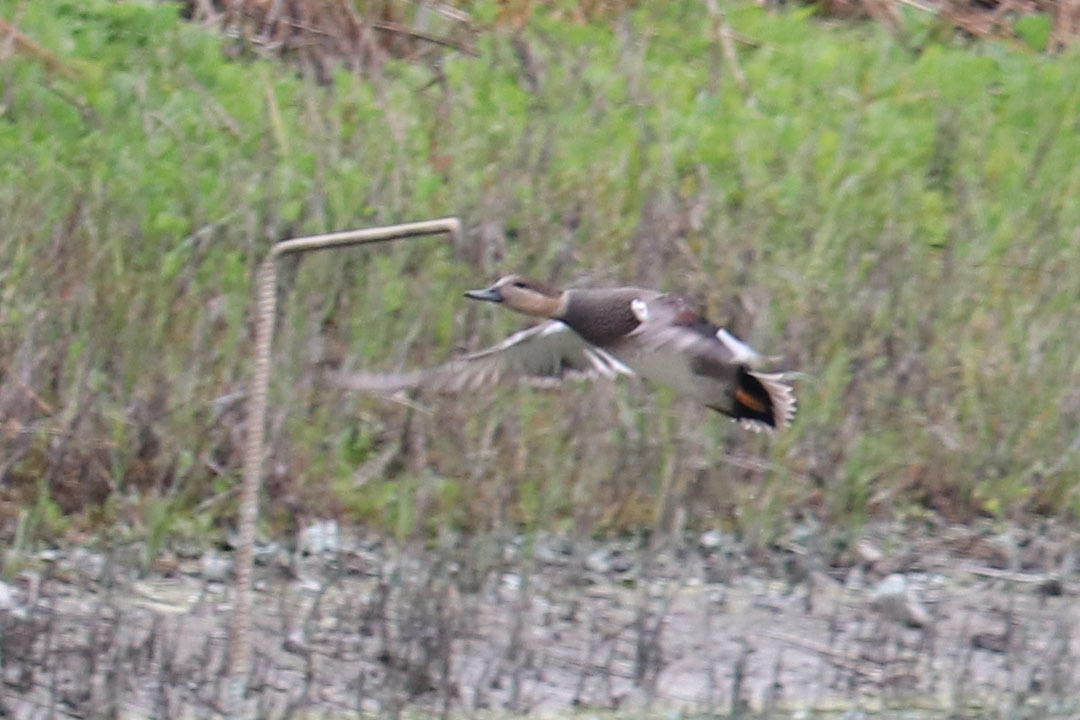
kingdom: Animalia
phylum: Chordata
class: Aves
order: Anseriformes
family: Anatidae
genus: Mareca
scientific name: Mareca strepera
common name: Gadwall
